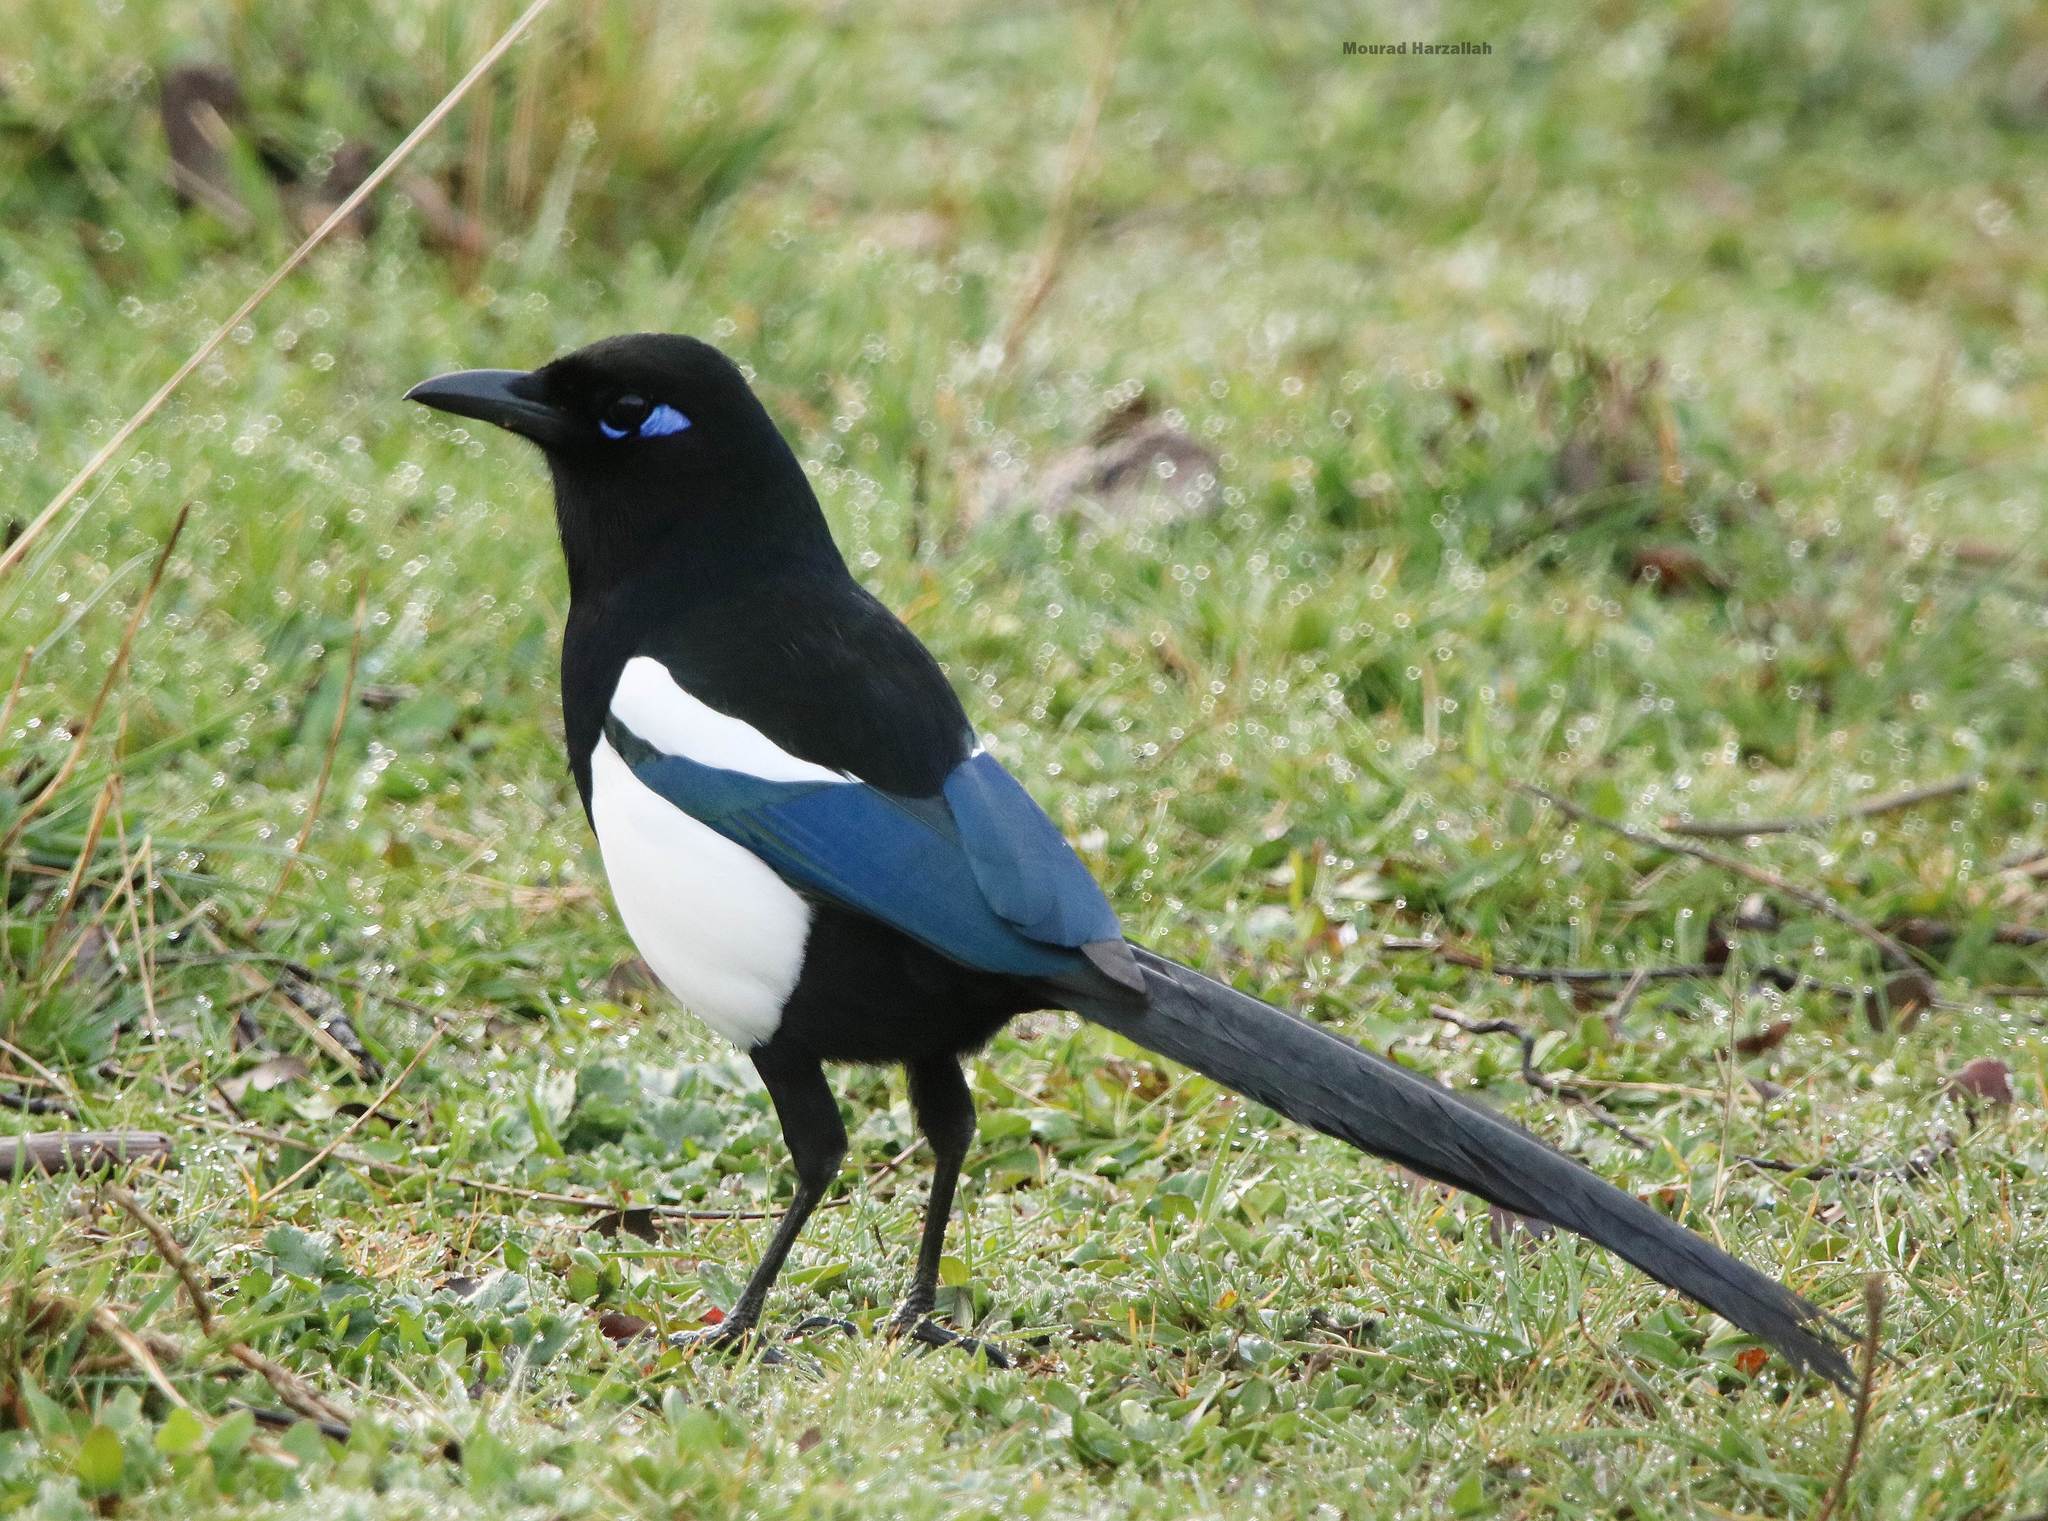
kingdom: Animalia
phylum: Chordata
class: Aves
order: Passeriformes
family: Corvidae
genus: Pica
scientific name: Pica mauritanica
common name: Maghreb magpie
